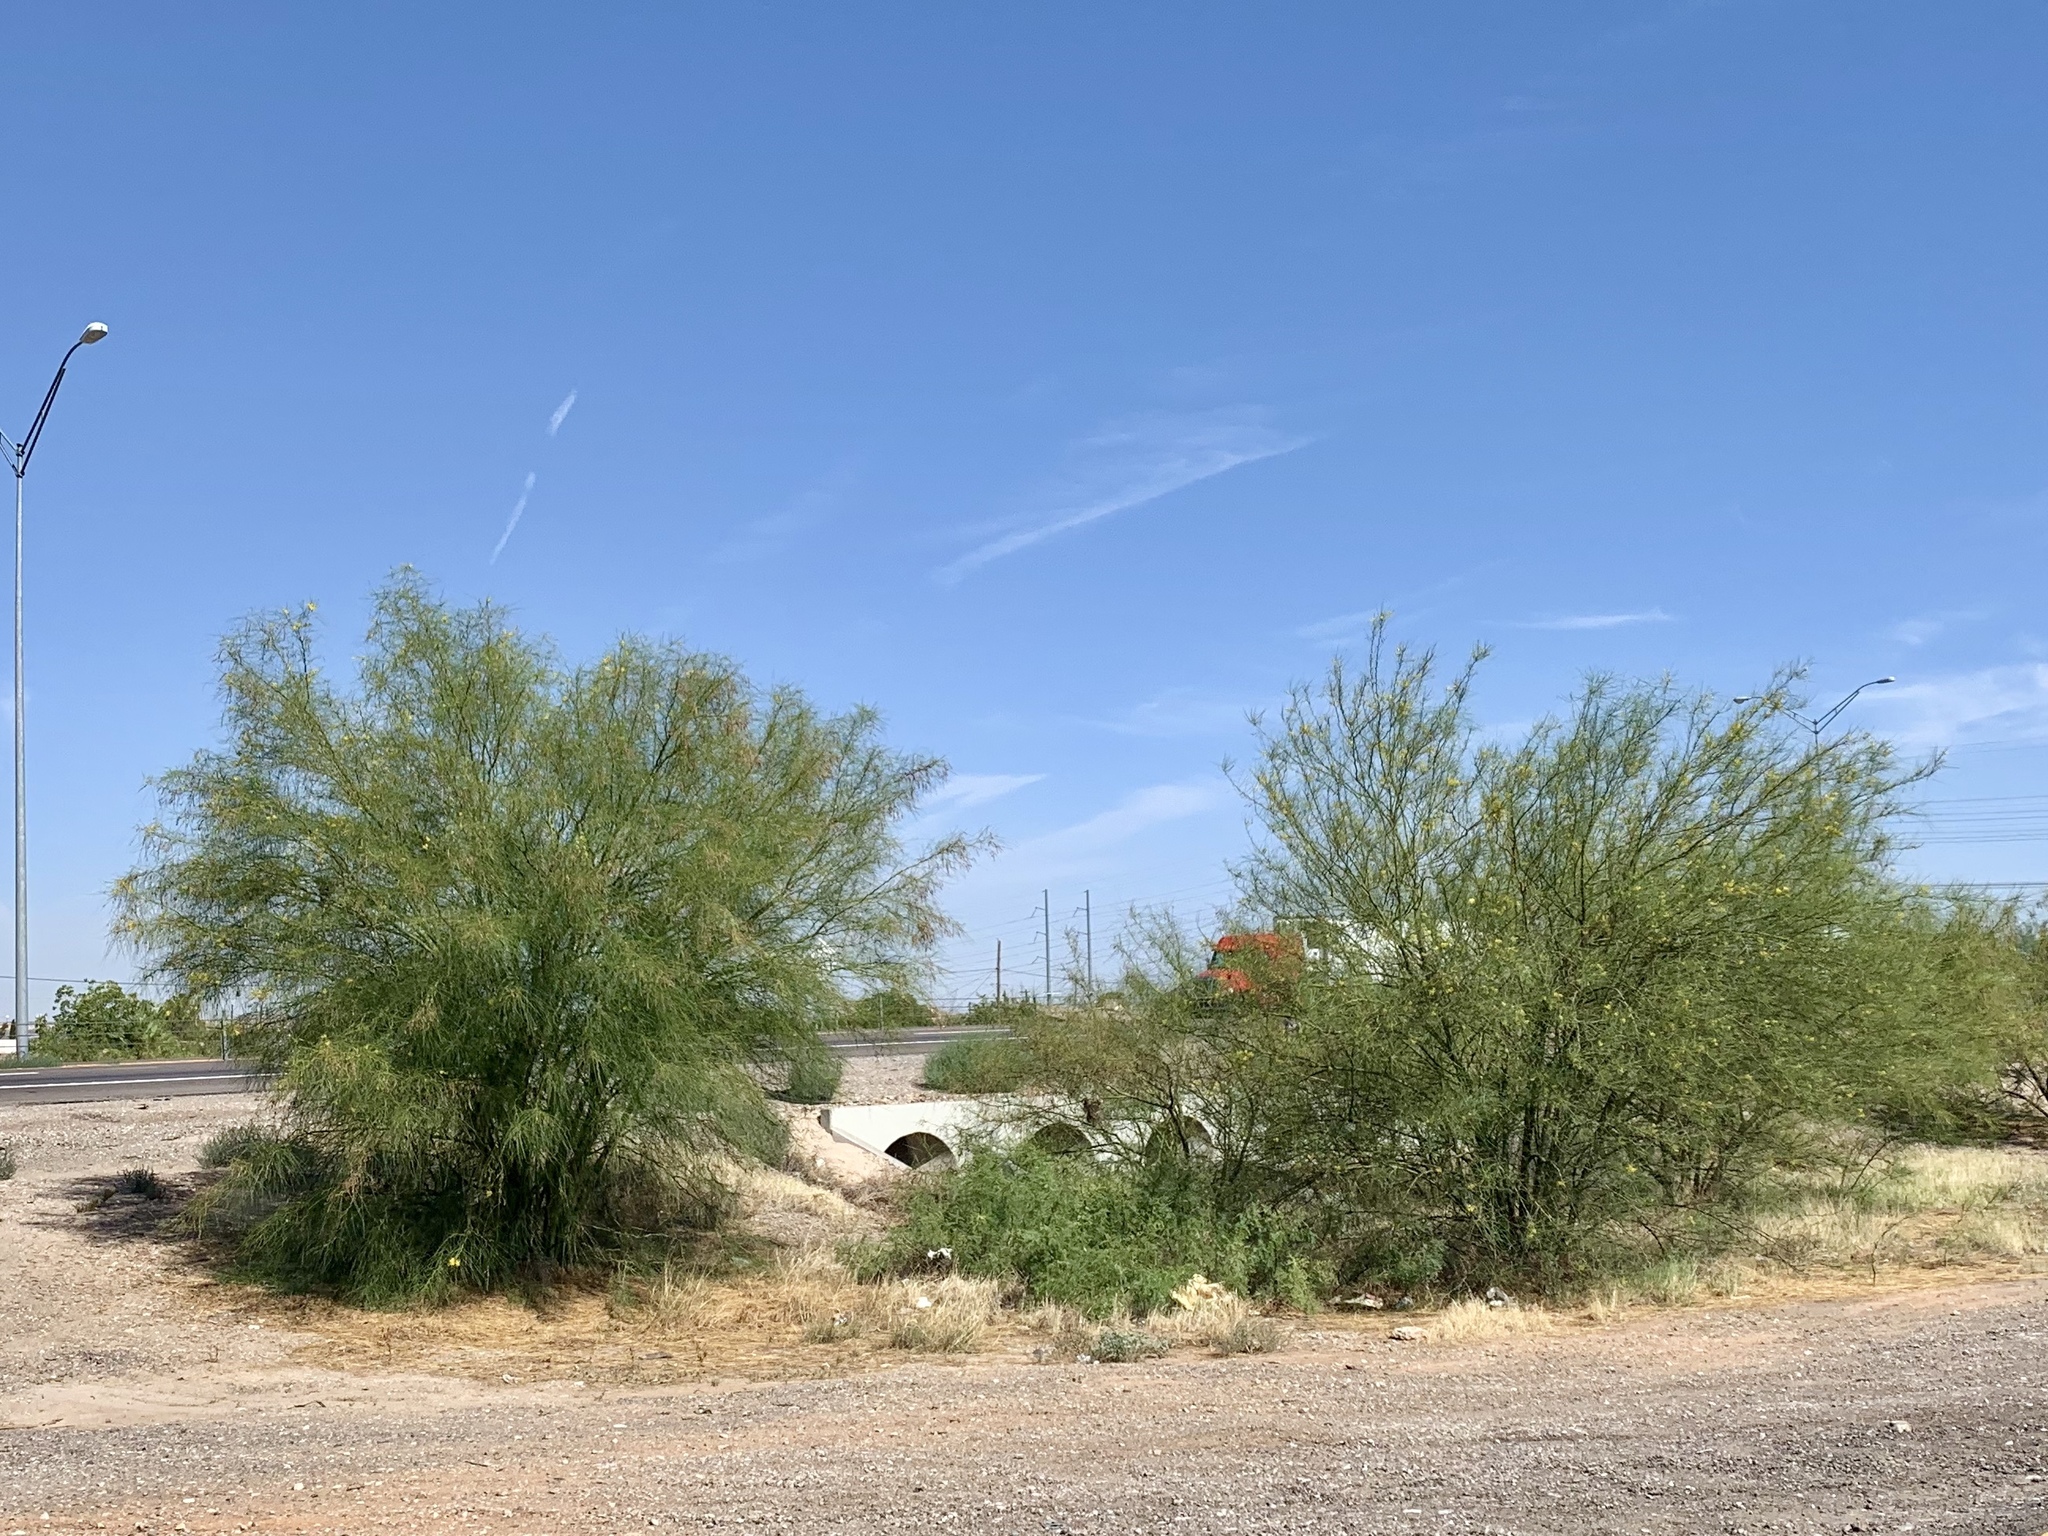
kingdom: Plantae
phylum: Tracheophyta
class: Magnoliopsida
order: Fabales
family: Fabaceae
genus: Parkinsonia
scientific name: Parkinsonia aculeata
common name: Jerusalem thorn
